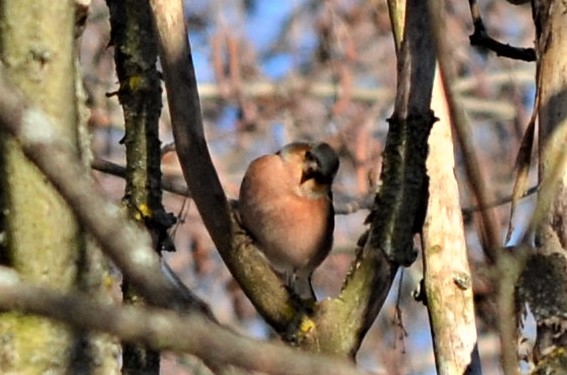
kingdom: Animalia
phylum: Chordata
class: Aves
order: Passeriformes
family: Fringillidae
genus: Fringilla
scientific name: Fringilla coelebs
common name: Common chaffinch
